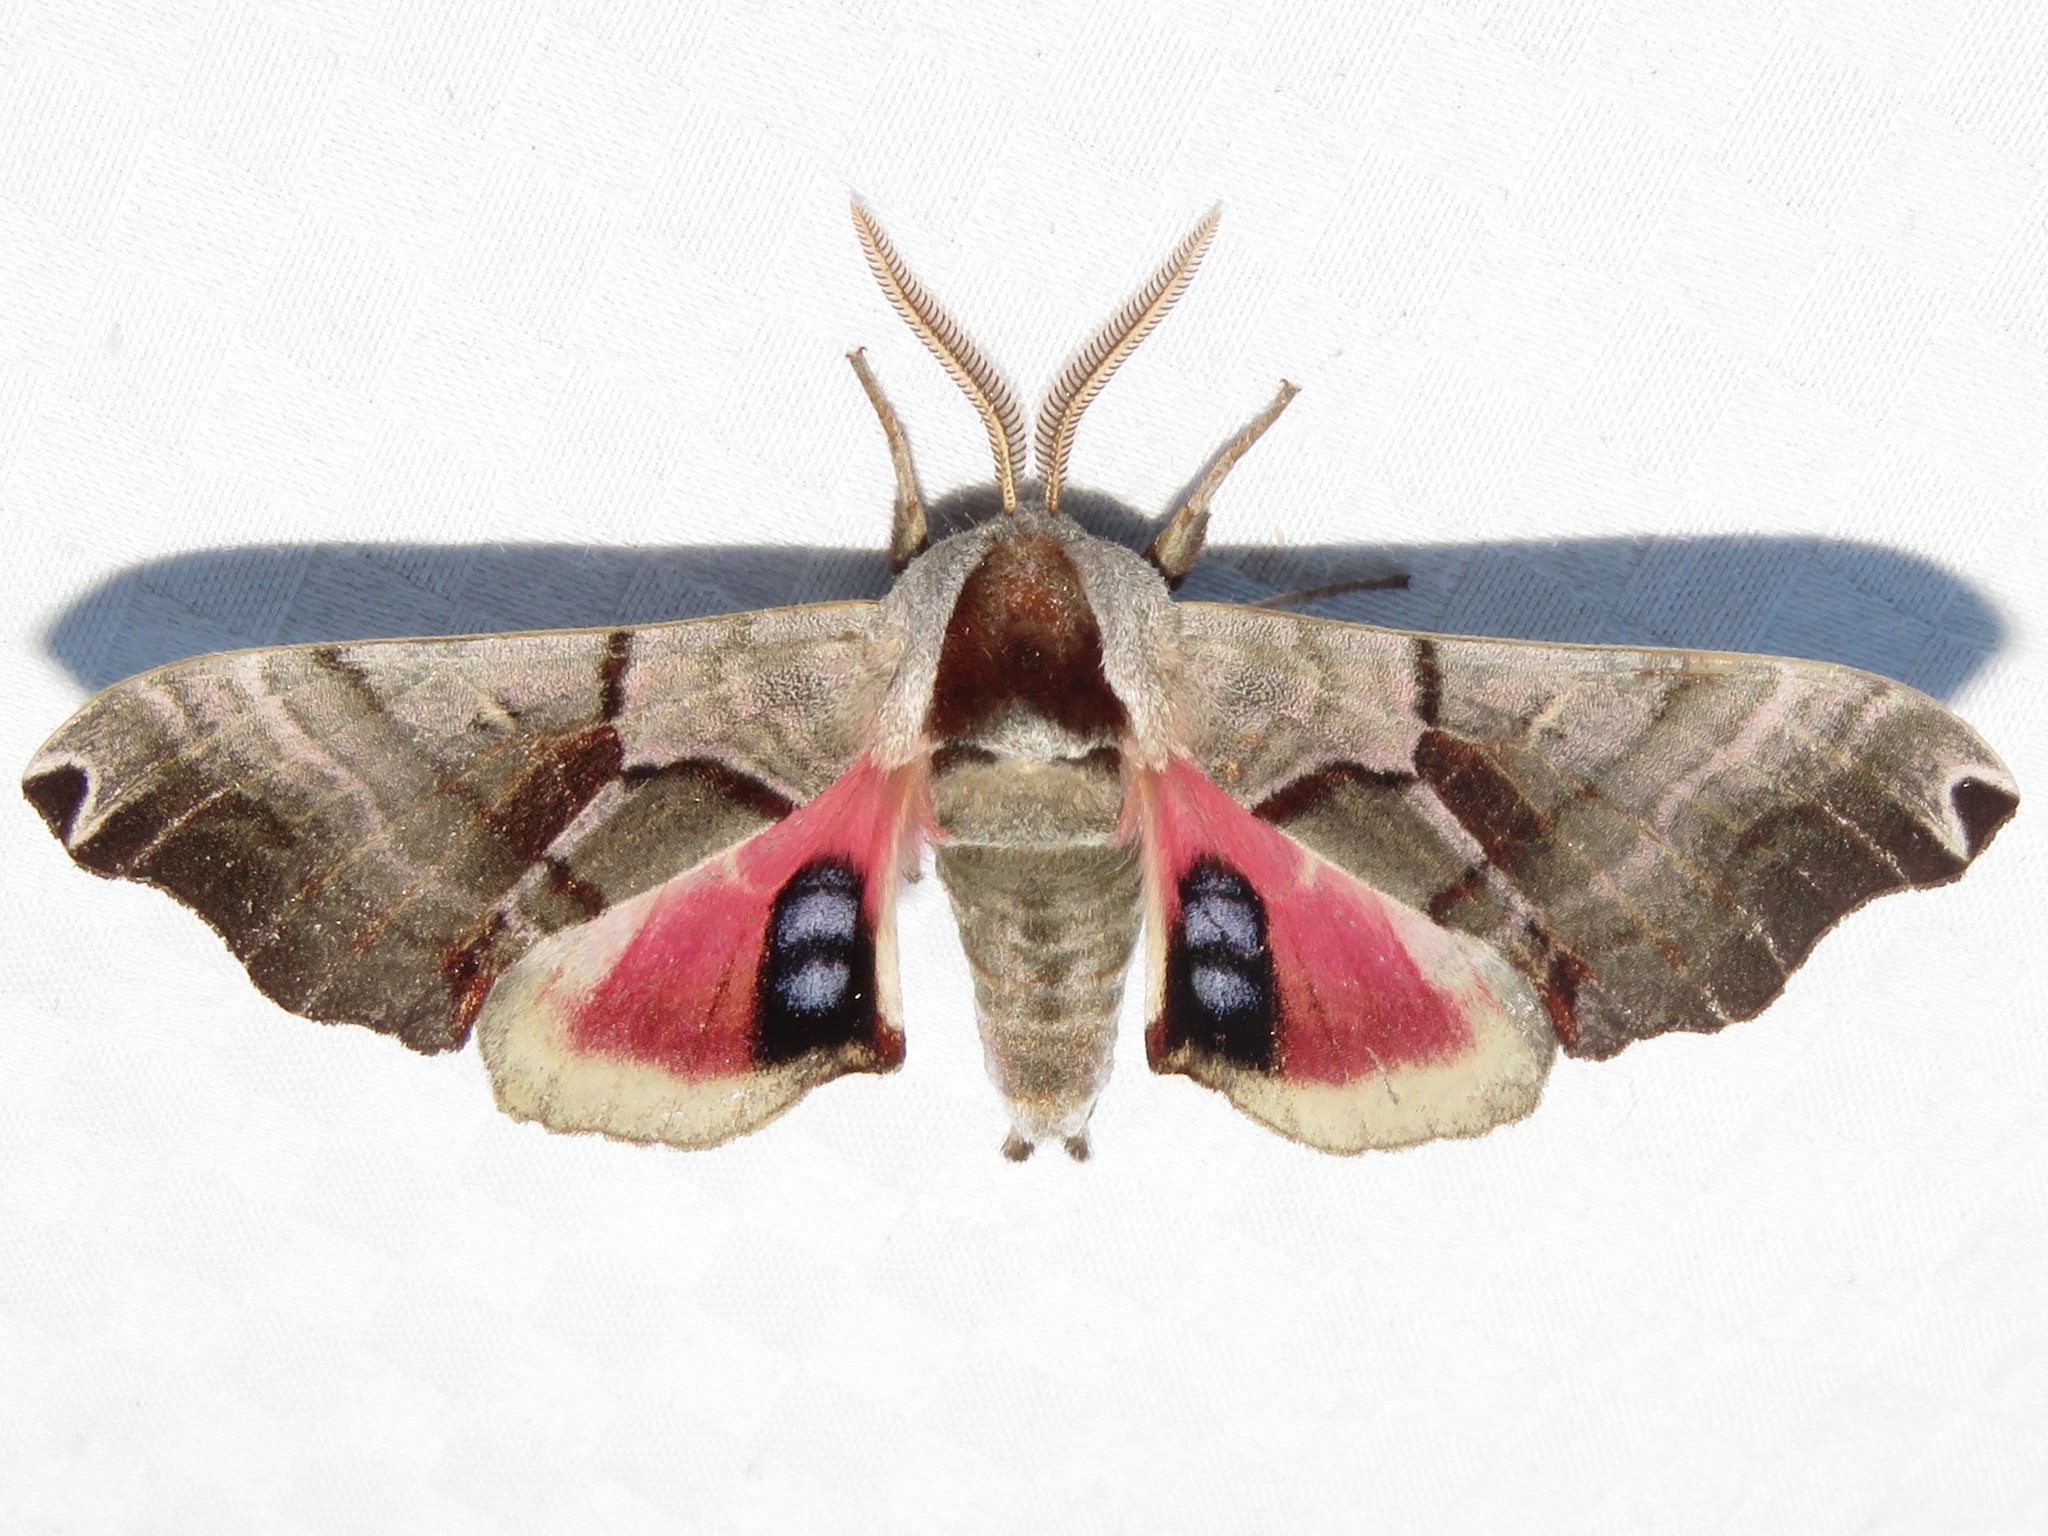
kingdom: Animalia
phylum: Arthropoda
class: Insecta
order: Lepidoptera
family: Sphingidae
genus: Smerinthus
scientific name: Smerinthus jamaicensis
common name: Twin spotted sphinx
